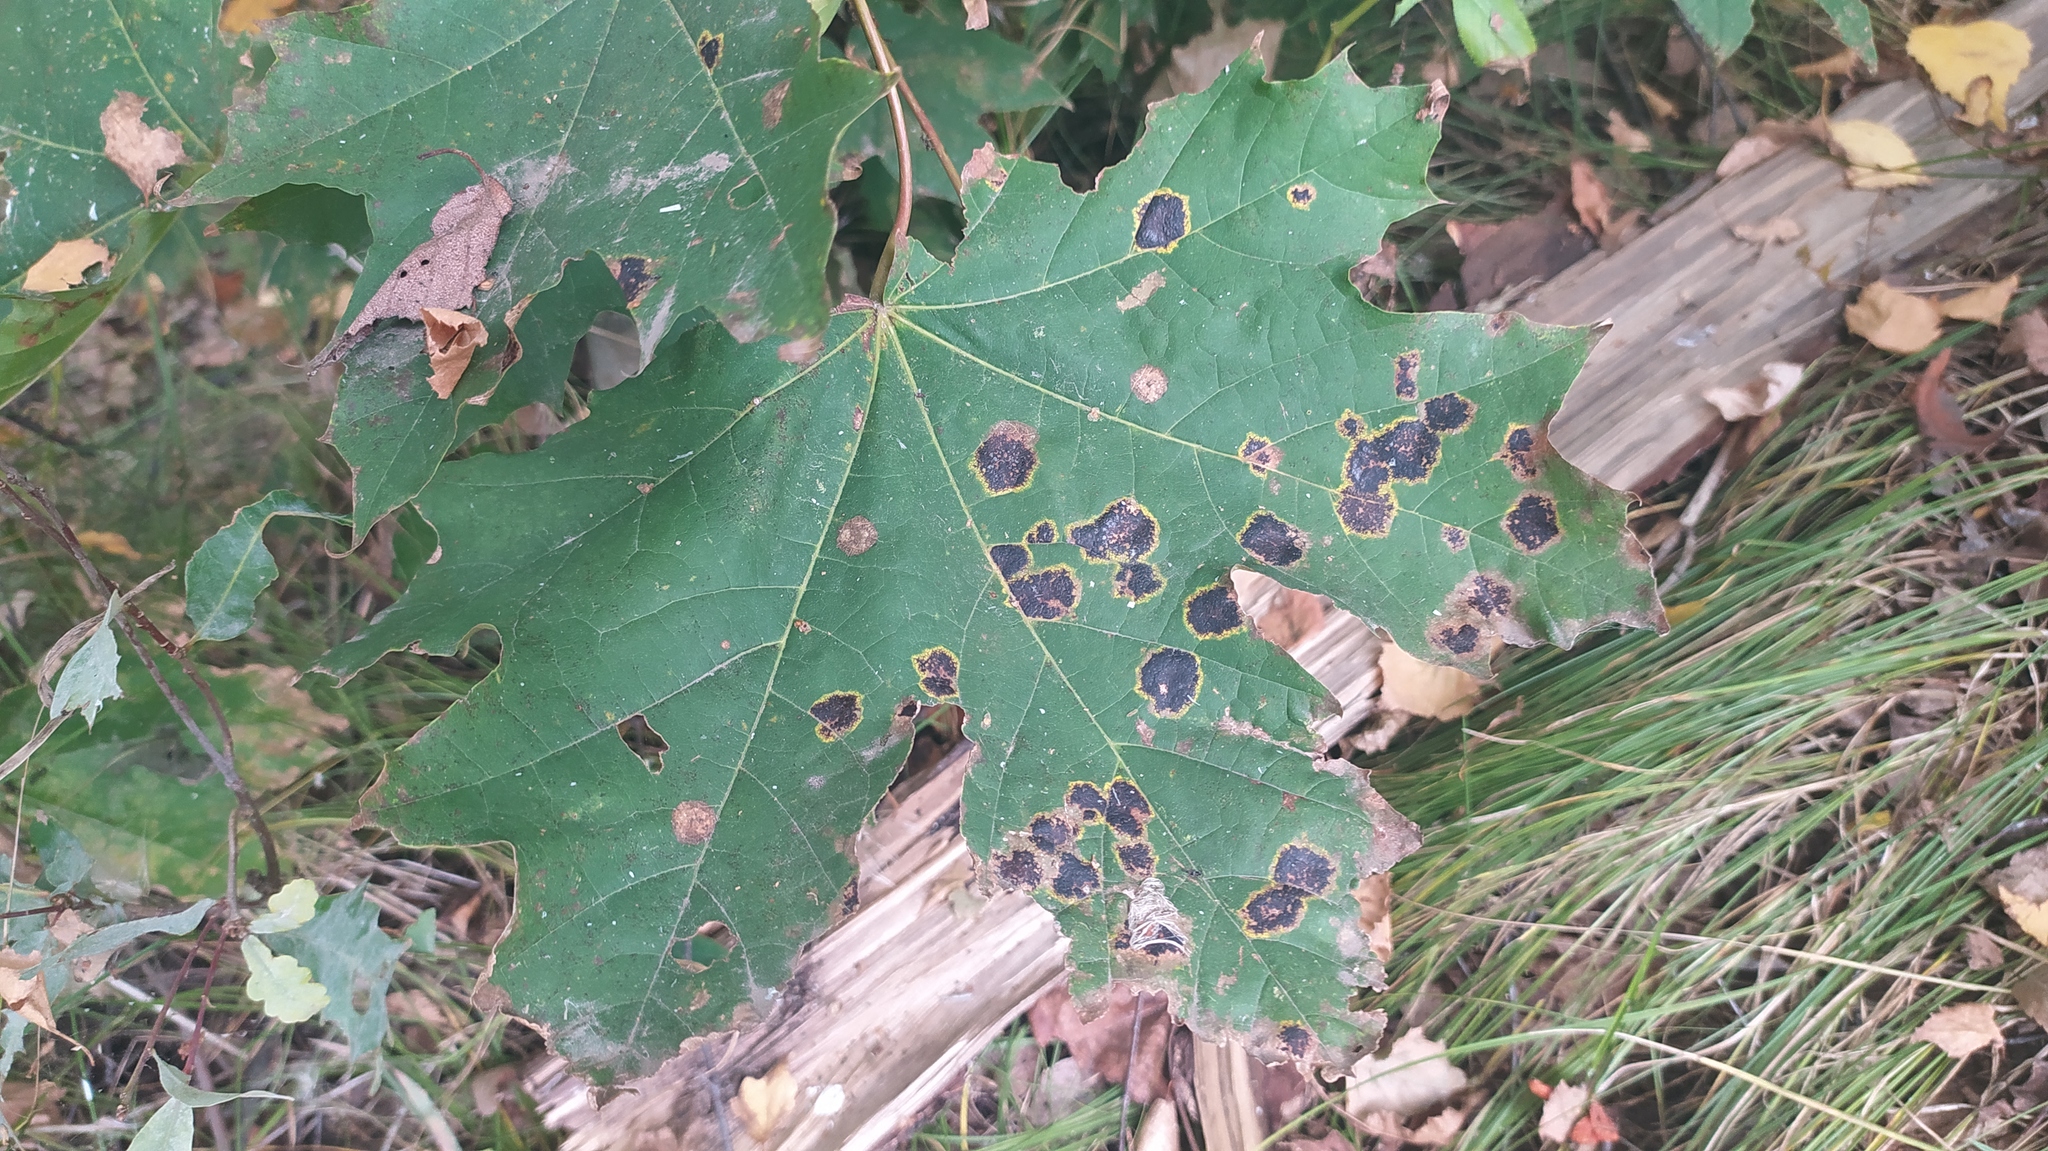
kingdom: Fungi
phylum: Ascomycota
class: Leotiomycetes
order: Rhytismatales
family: Rhytismataceae
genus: Rhytisma
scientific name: Rhytisma acerinum
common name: European tar spot
